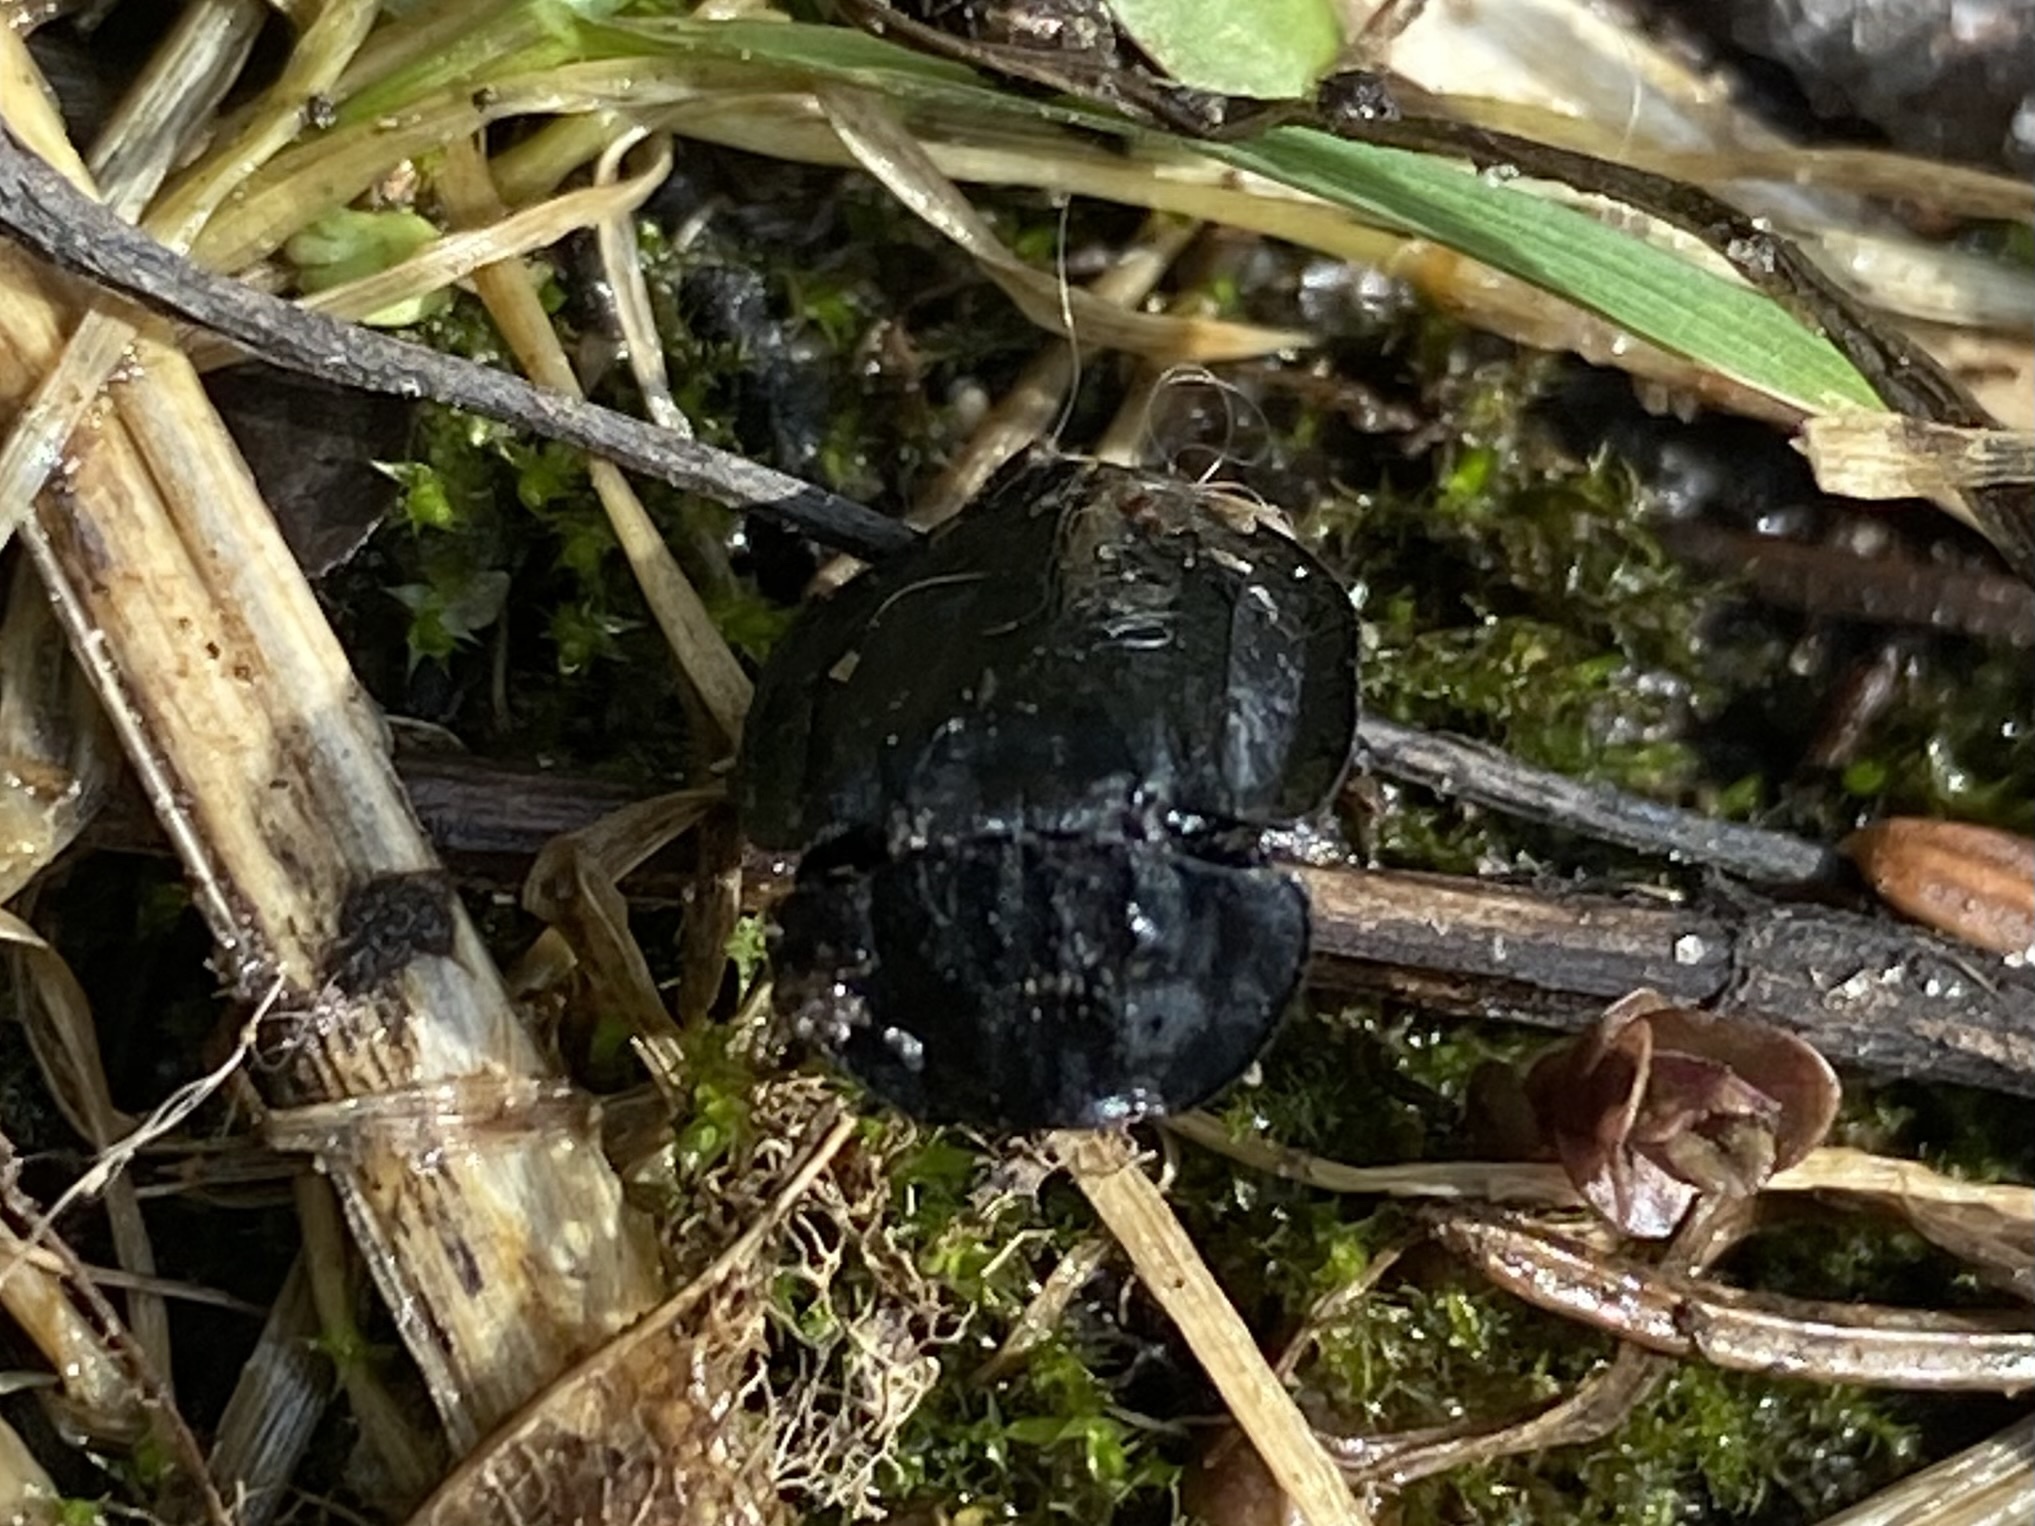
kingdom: Animalia
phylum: Arthropoda
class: Insecta
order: Coleoptera
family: Staphylinidae
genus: Oiceoptoma
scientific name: Oiceoptoma inaequale
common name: Ridged carrion beetle
